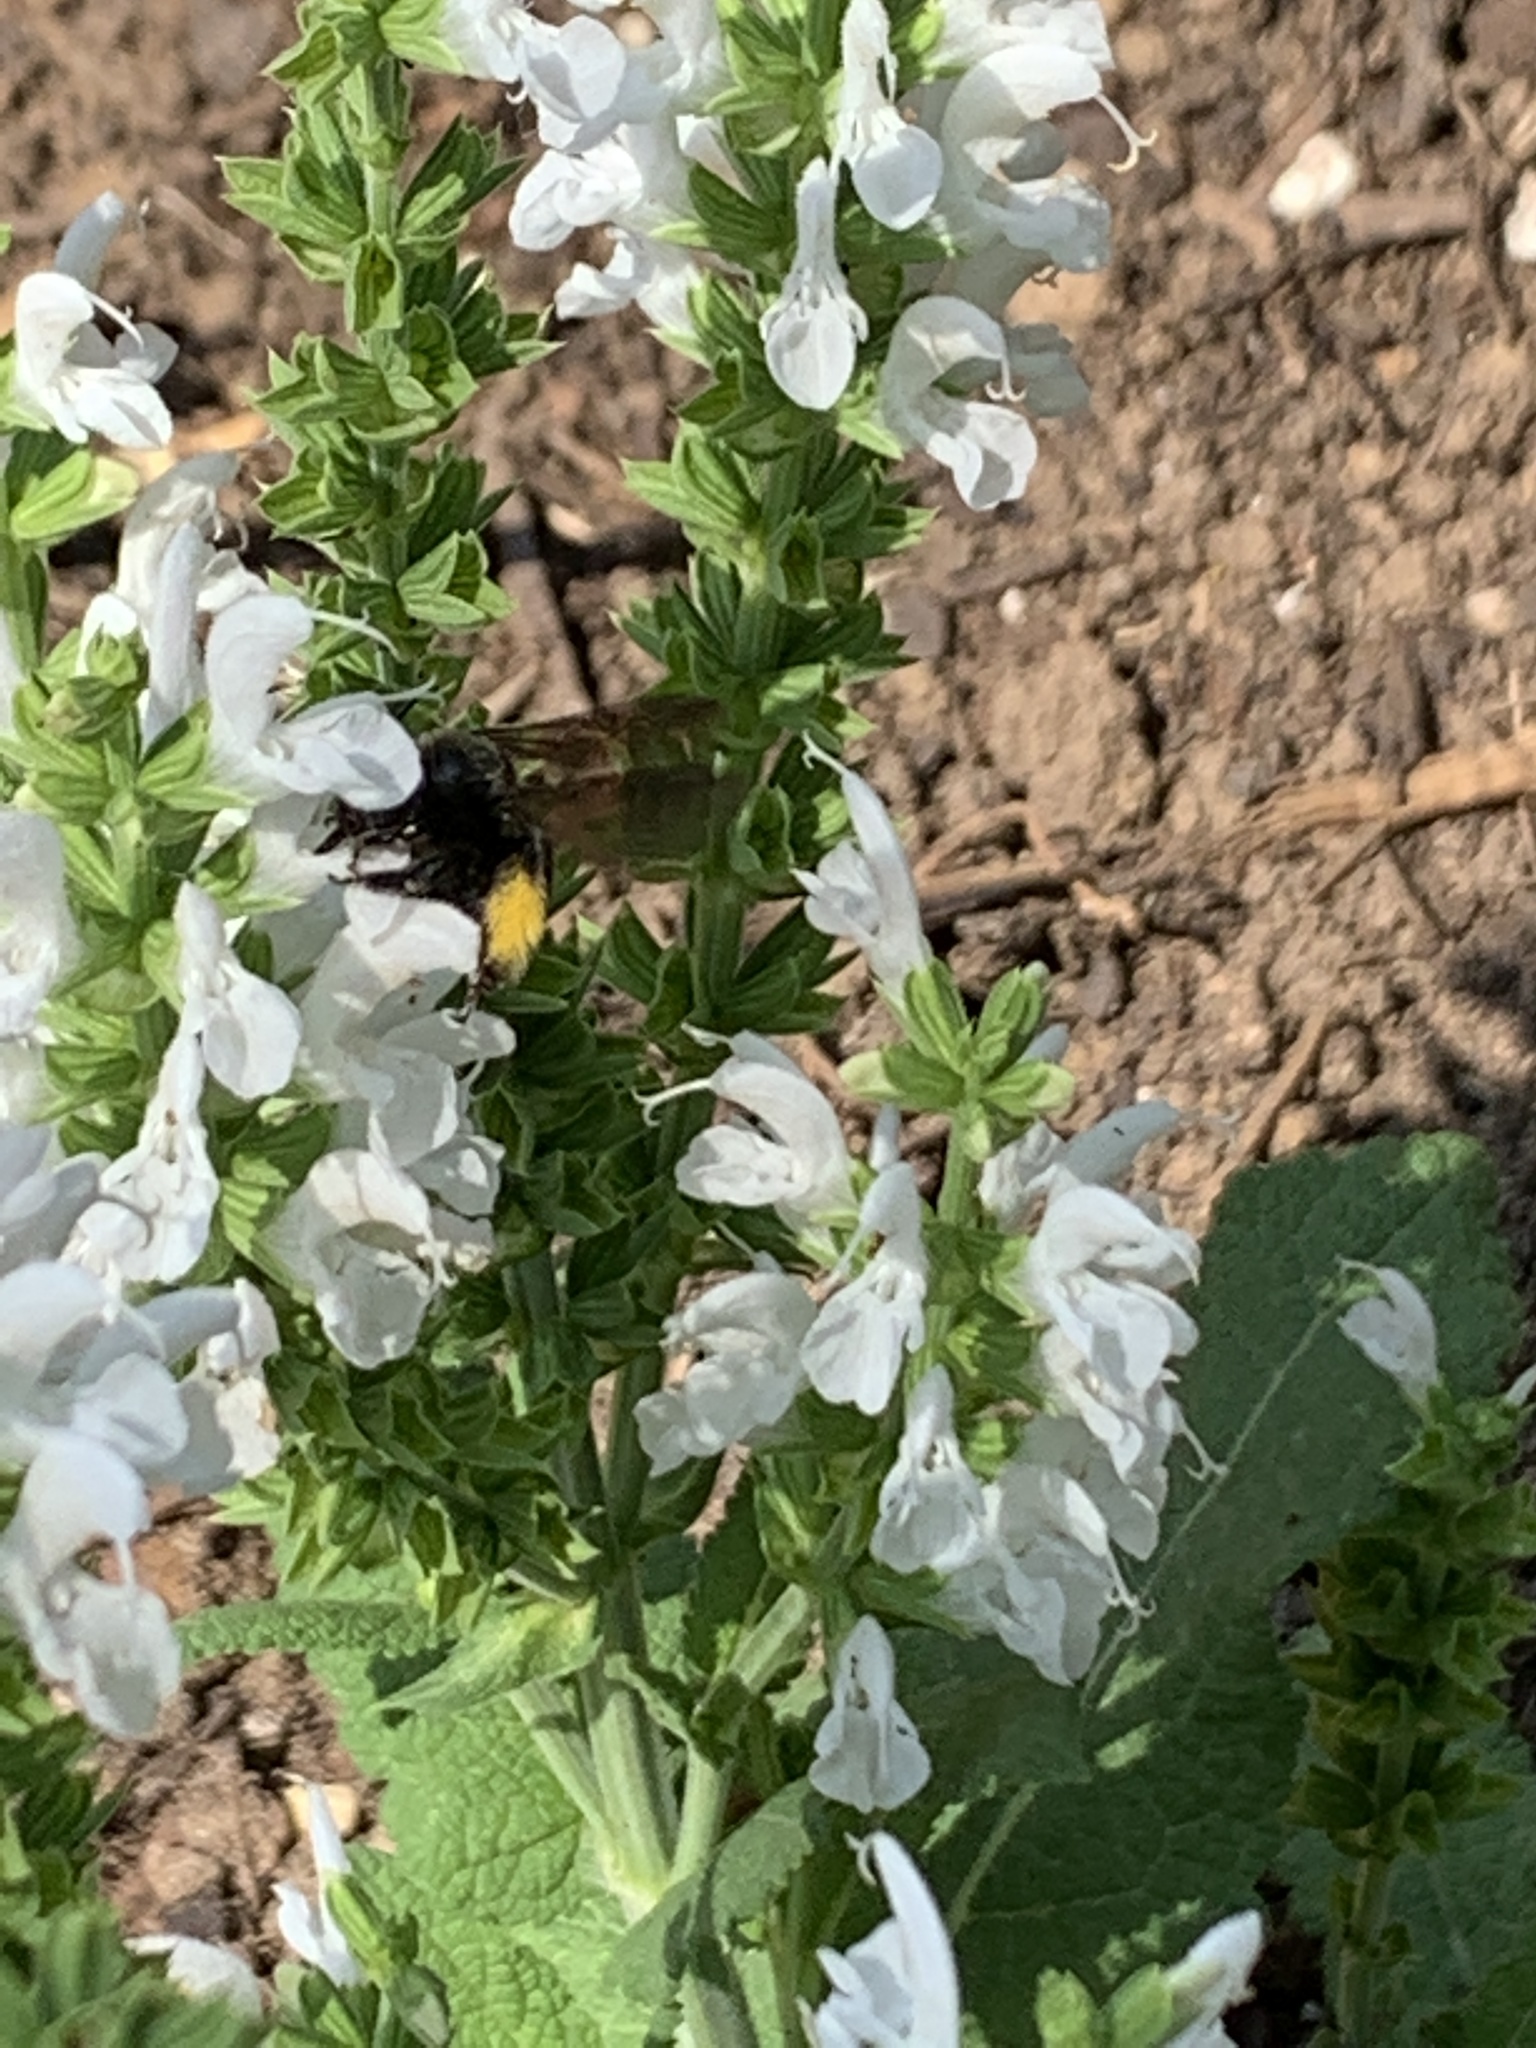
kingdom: Animalia
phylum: Arthropoda
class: Insecta
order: Hymenoptera
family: Apidae
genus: Melissodes
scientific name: Melissodes bimaculatus
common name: Two-spotted long-horned bee
